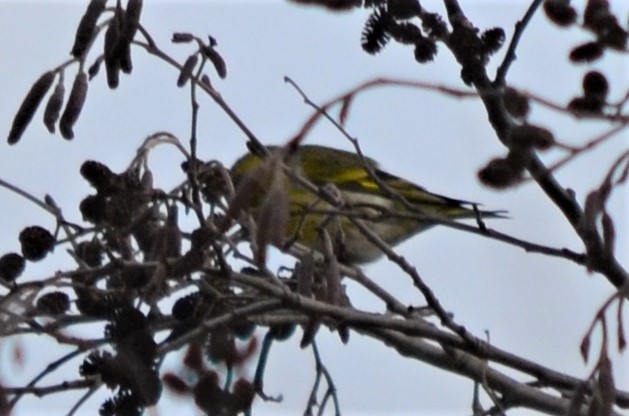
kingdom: Animalia
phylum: Chordata
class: Aves
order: Passeriformes
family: Fringillidae
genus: Spinus
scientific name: Spinus spinus
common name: Eurasian siskin
